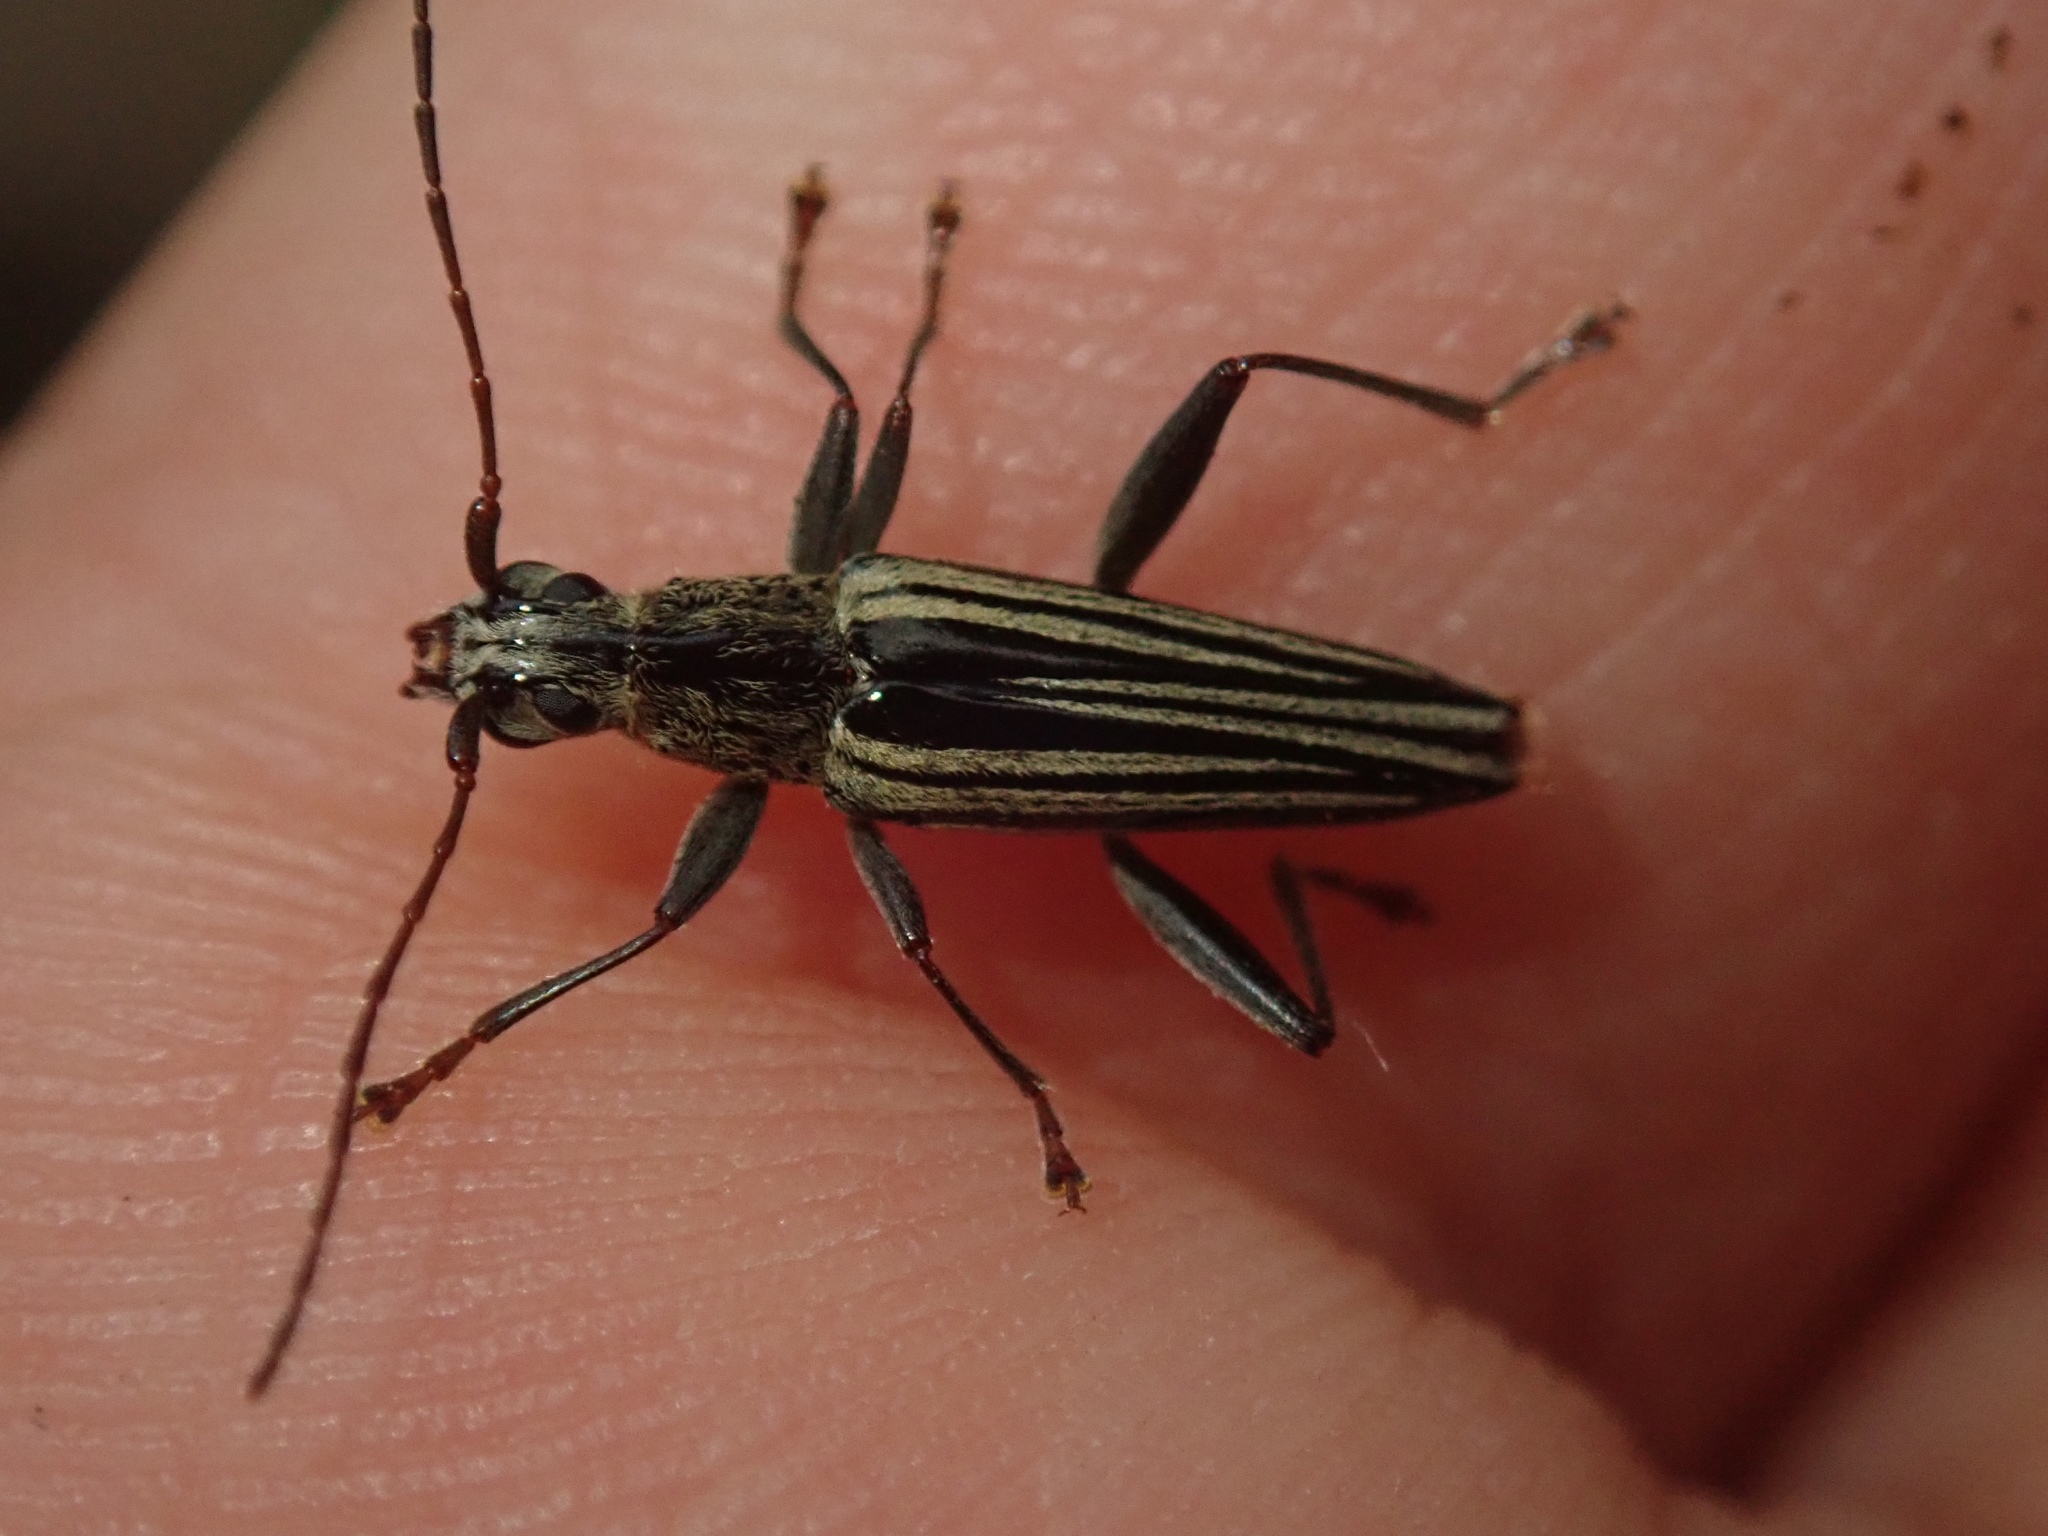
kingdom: Animalia
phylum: Arthropoda
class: Insecta
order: Coleoptera
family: Cerambycidae
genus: Coptomma
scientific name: Coptomma sulcatum
